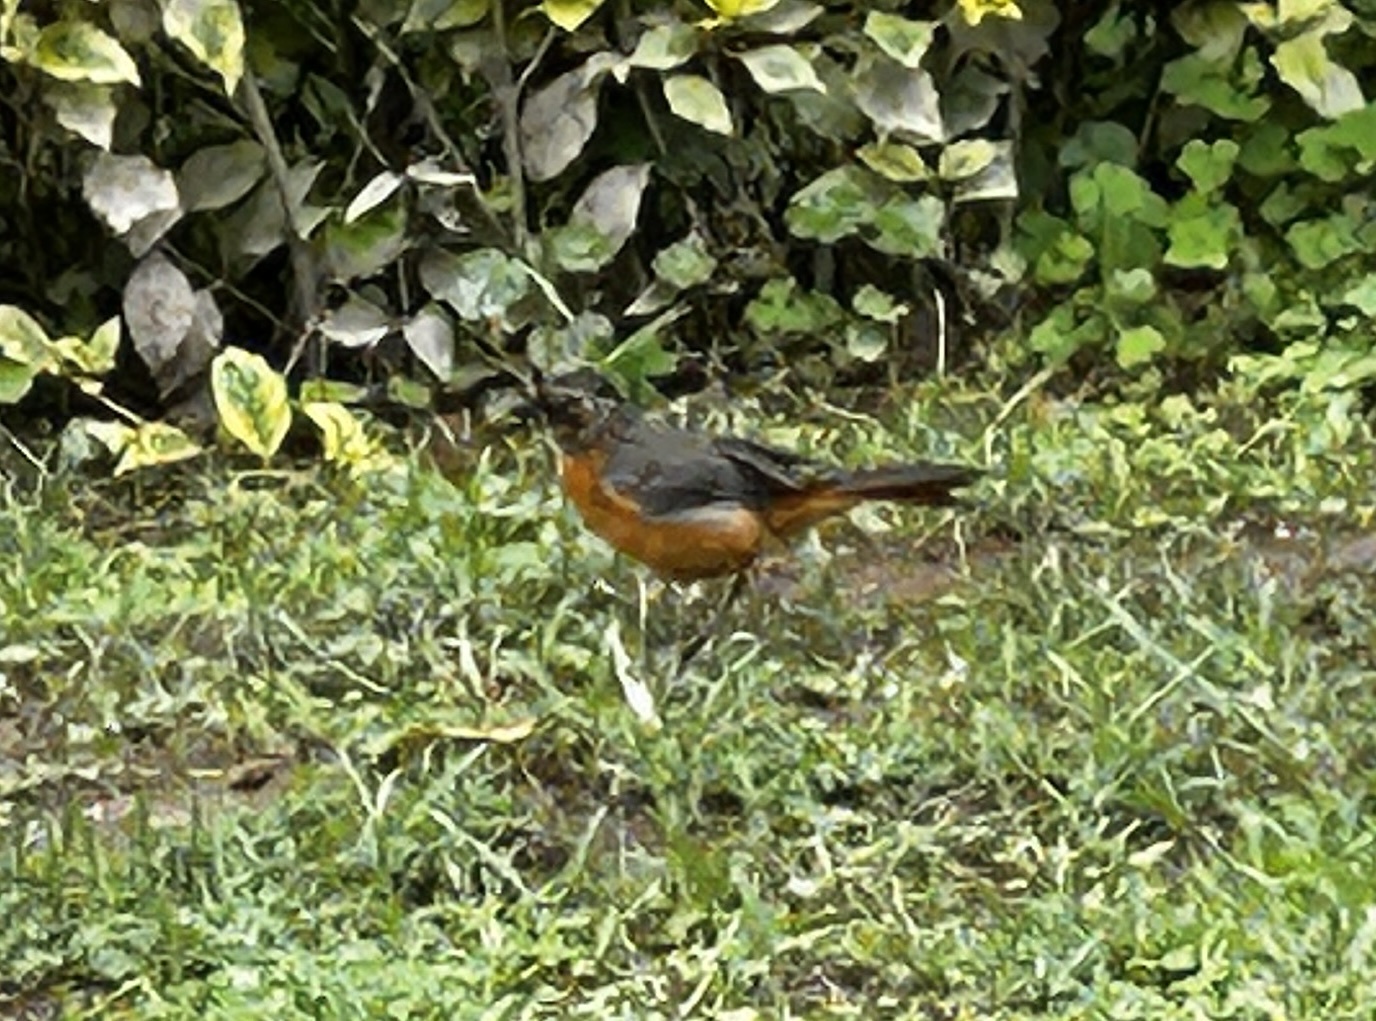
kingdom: Animalia
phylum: Chordata
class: Aves
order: Passeriformes
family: Muscicapidae
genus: Cossypha
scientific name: Cossypha heuglini
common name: White-browed robin-chat
